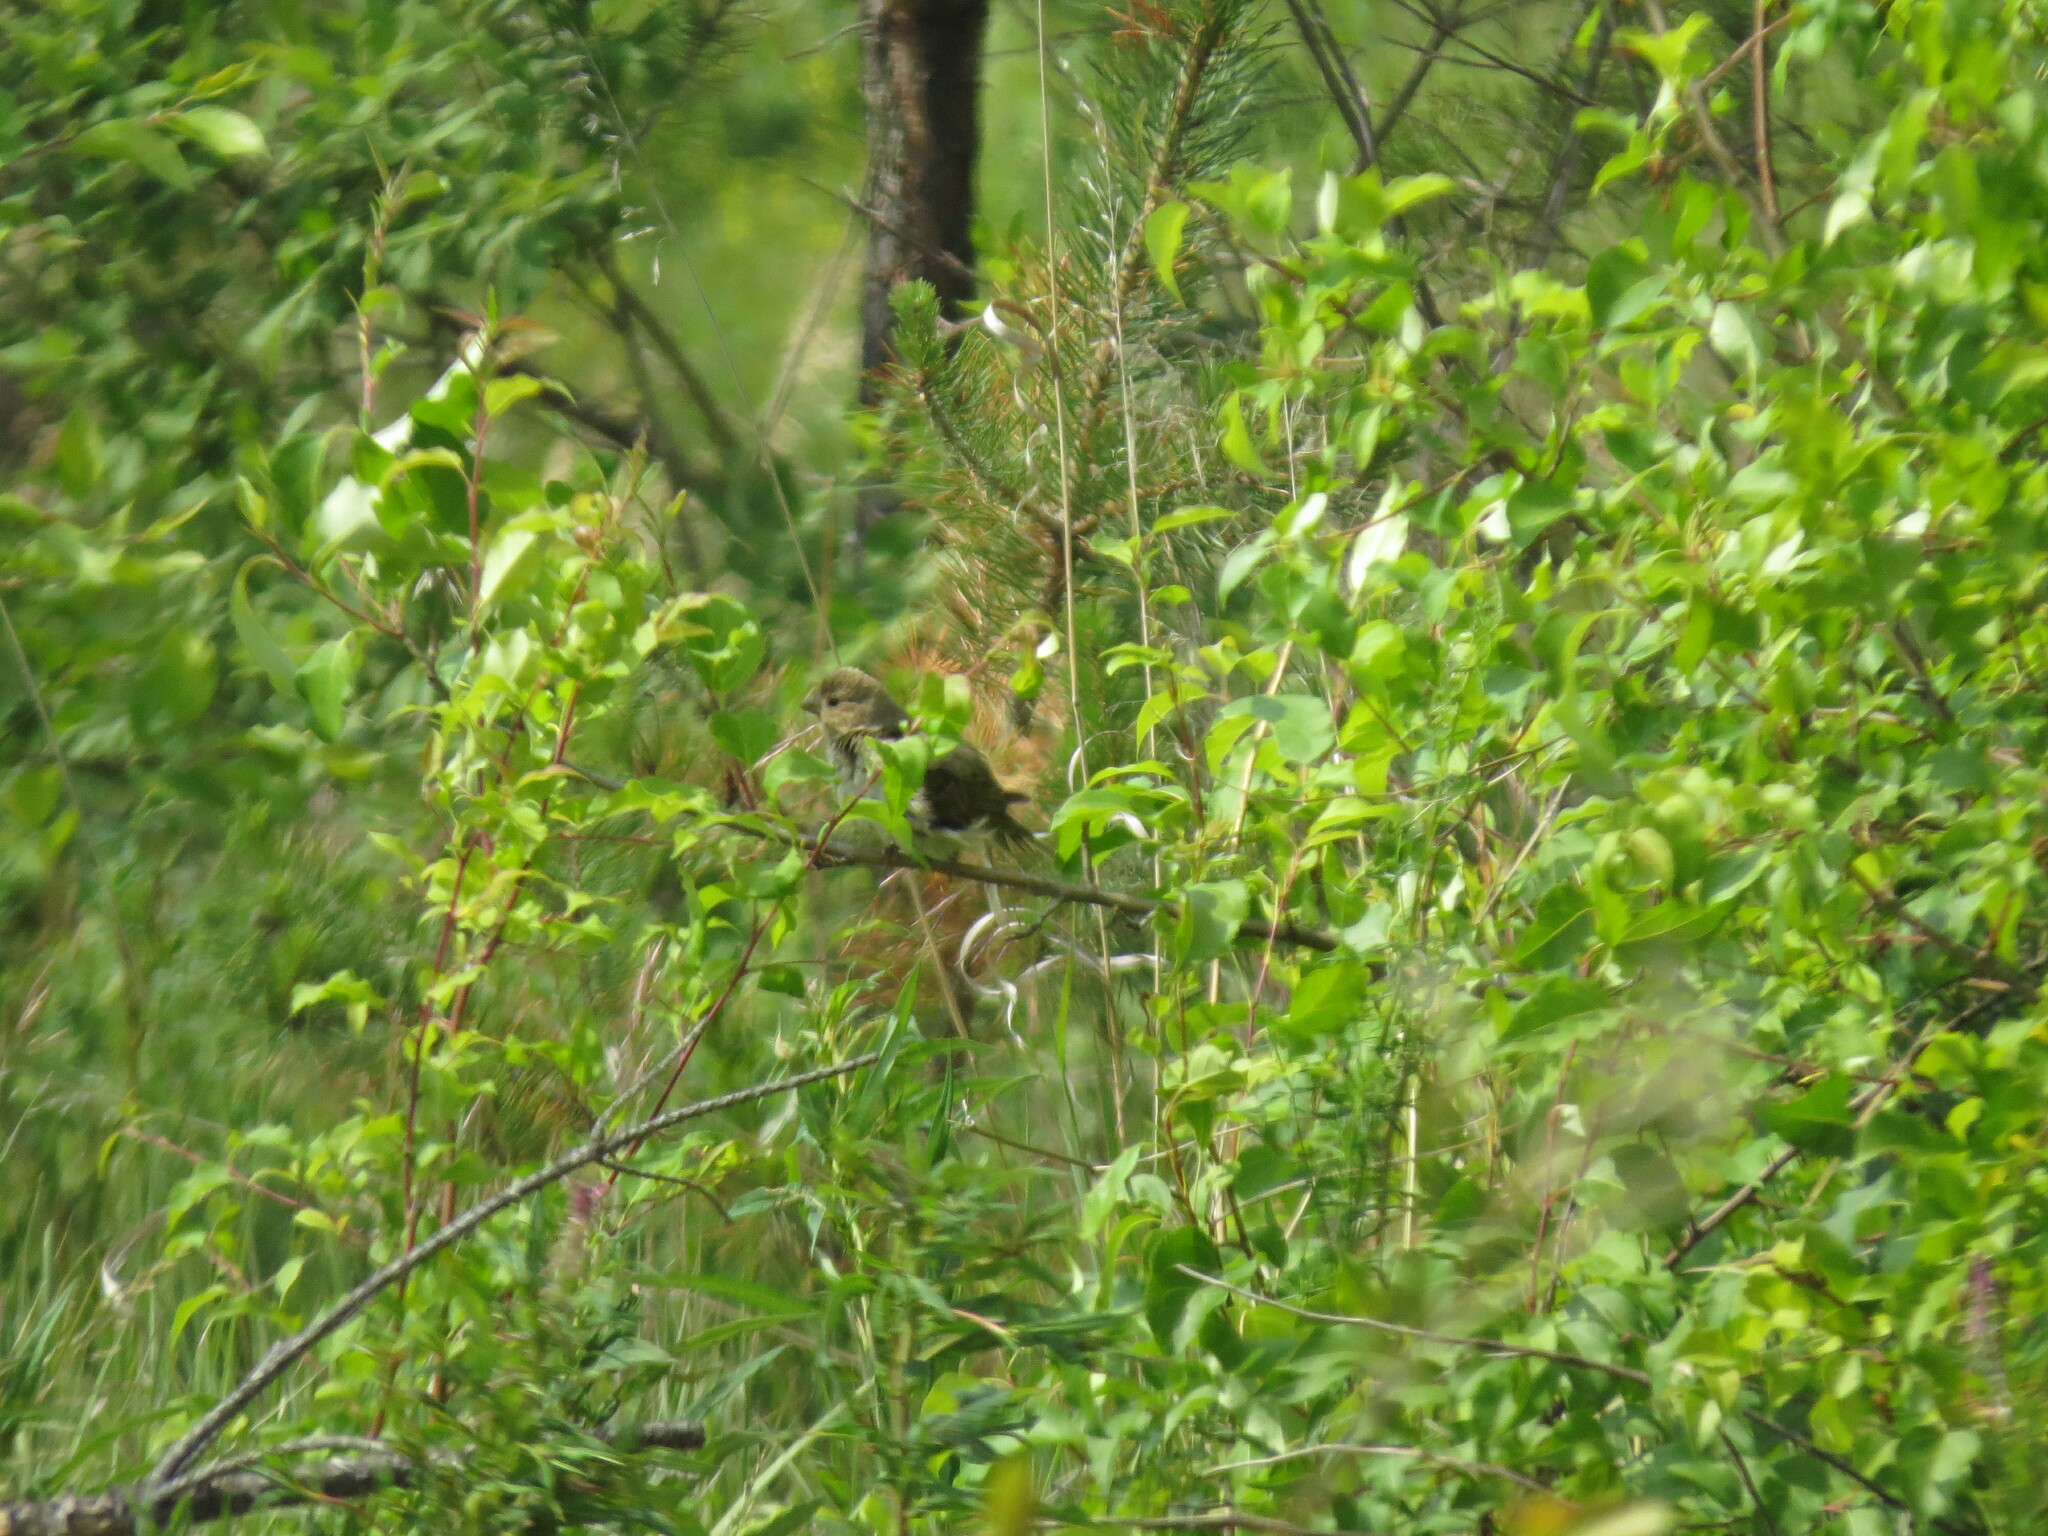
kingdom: Animalia
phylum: Chordata
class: Aves
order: Passeriformes
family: Fringillidae
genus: Carpodacus
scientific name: Carpodacus erythrinus
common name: Common rosefinch
